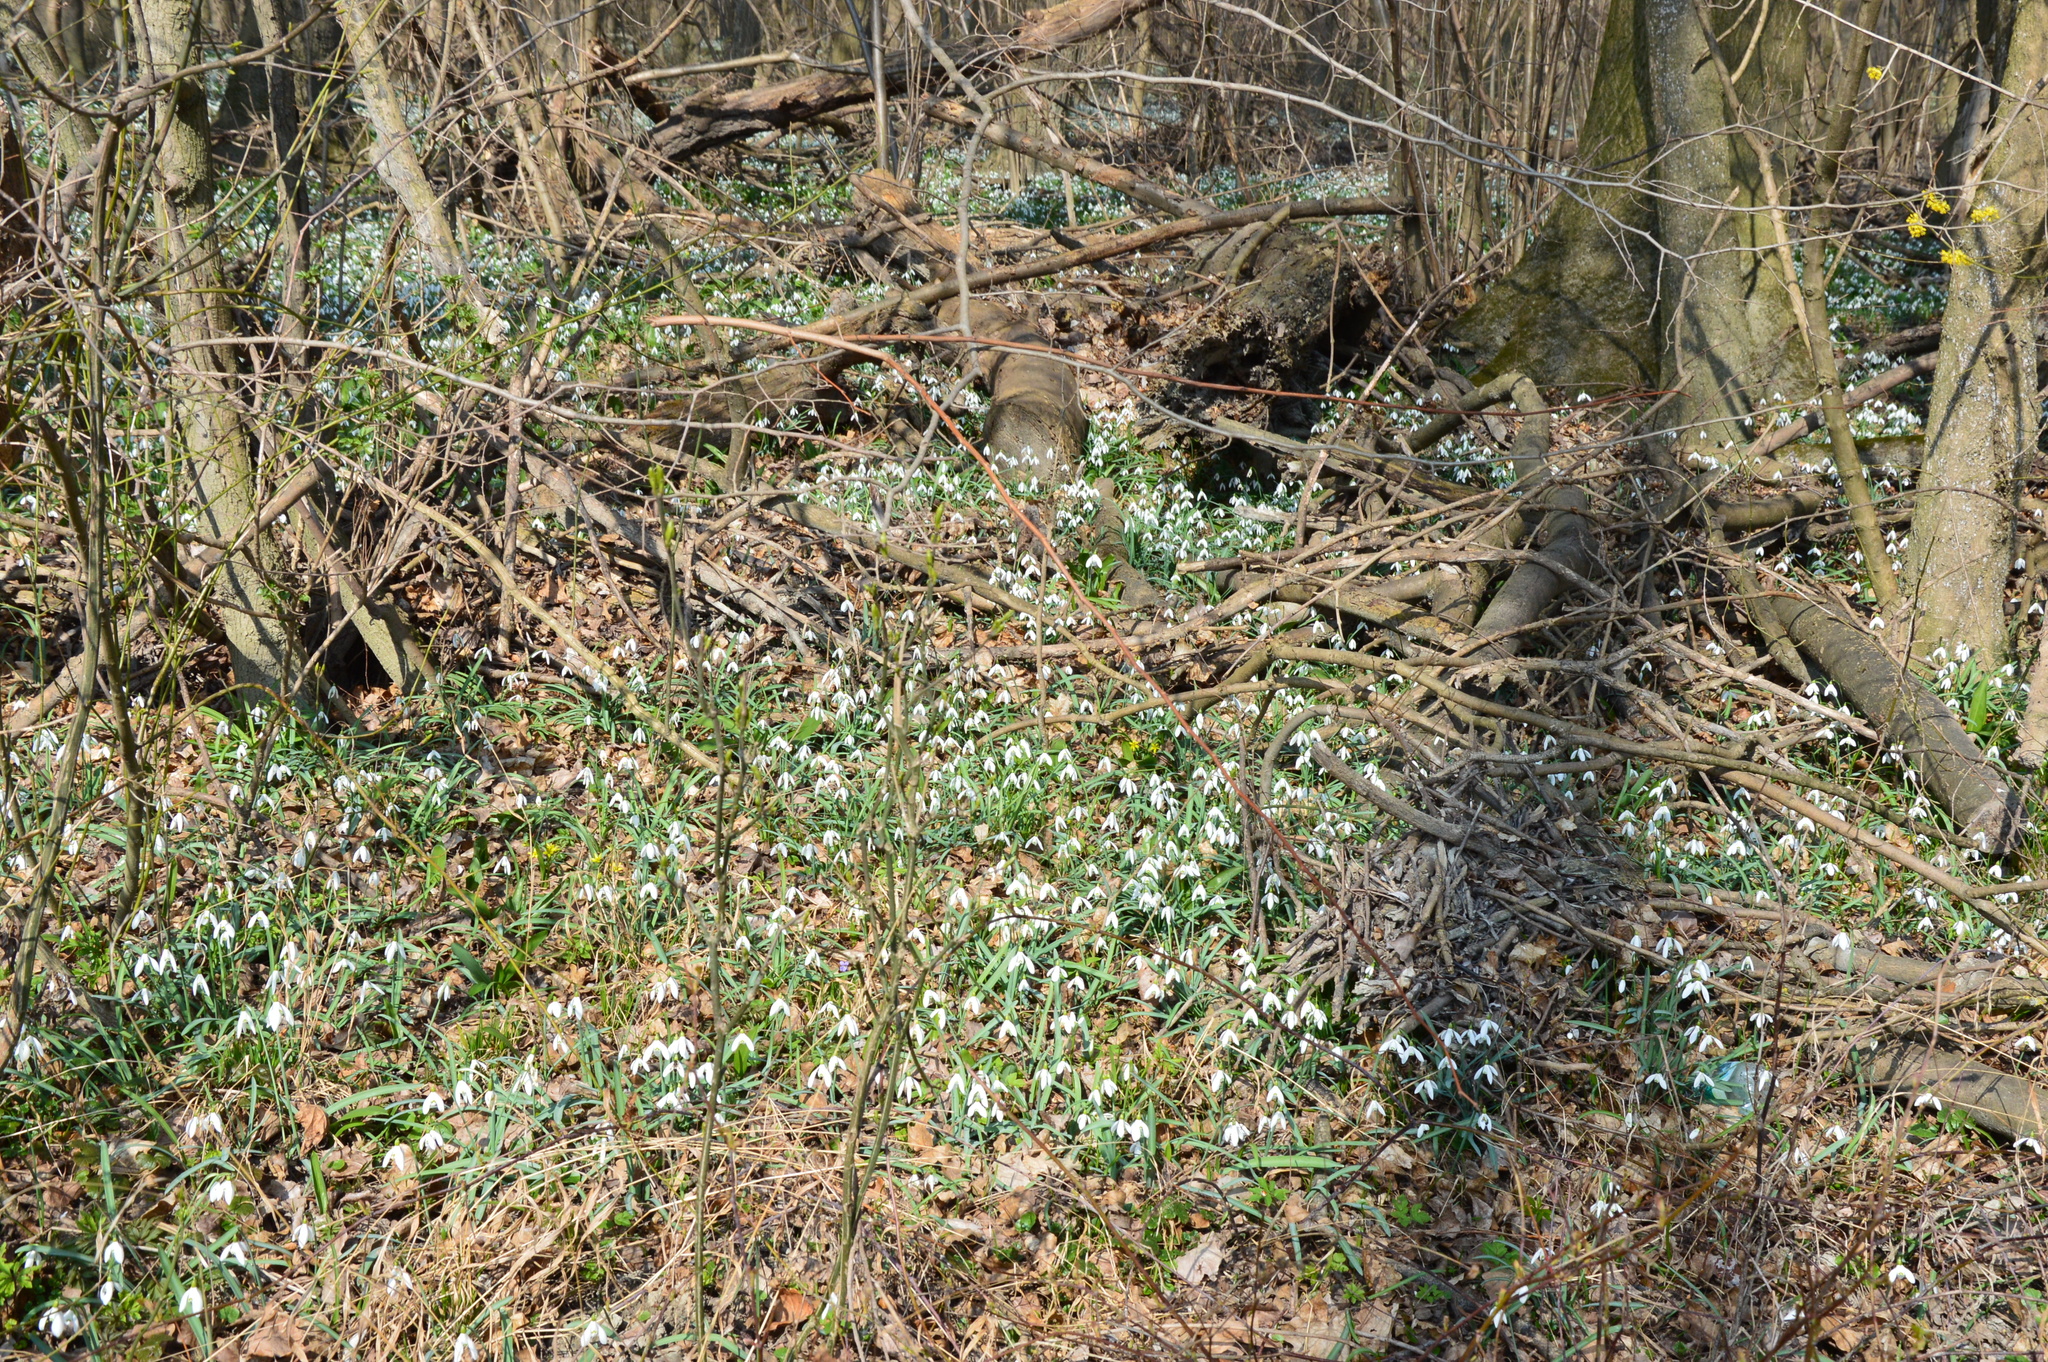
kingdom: Plantae
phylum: Tracheophyta
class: Liliopsida
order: Asparagales
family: Amaryllidaceae
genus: Galanthus
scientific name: Galanthus nivalis
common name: Snowdrop
